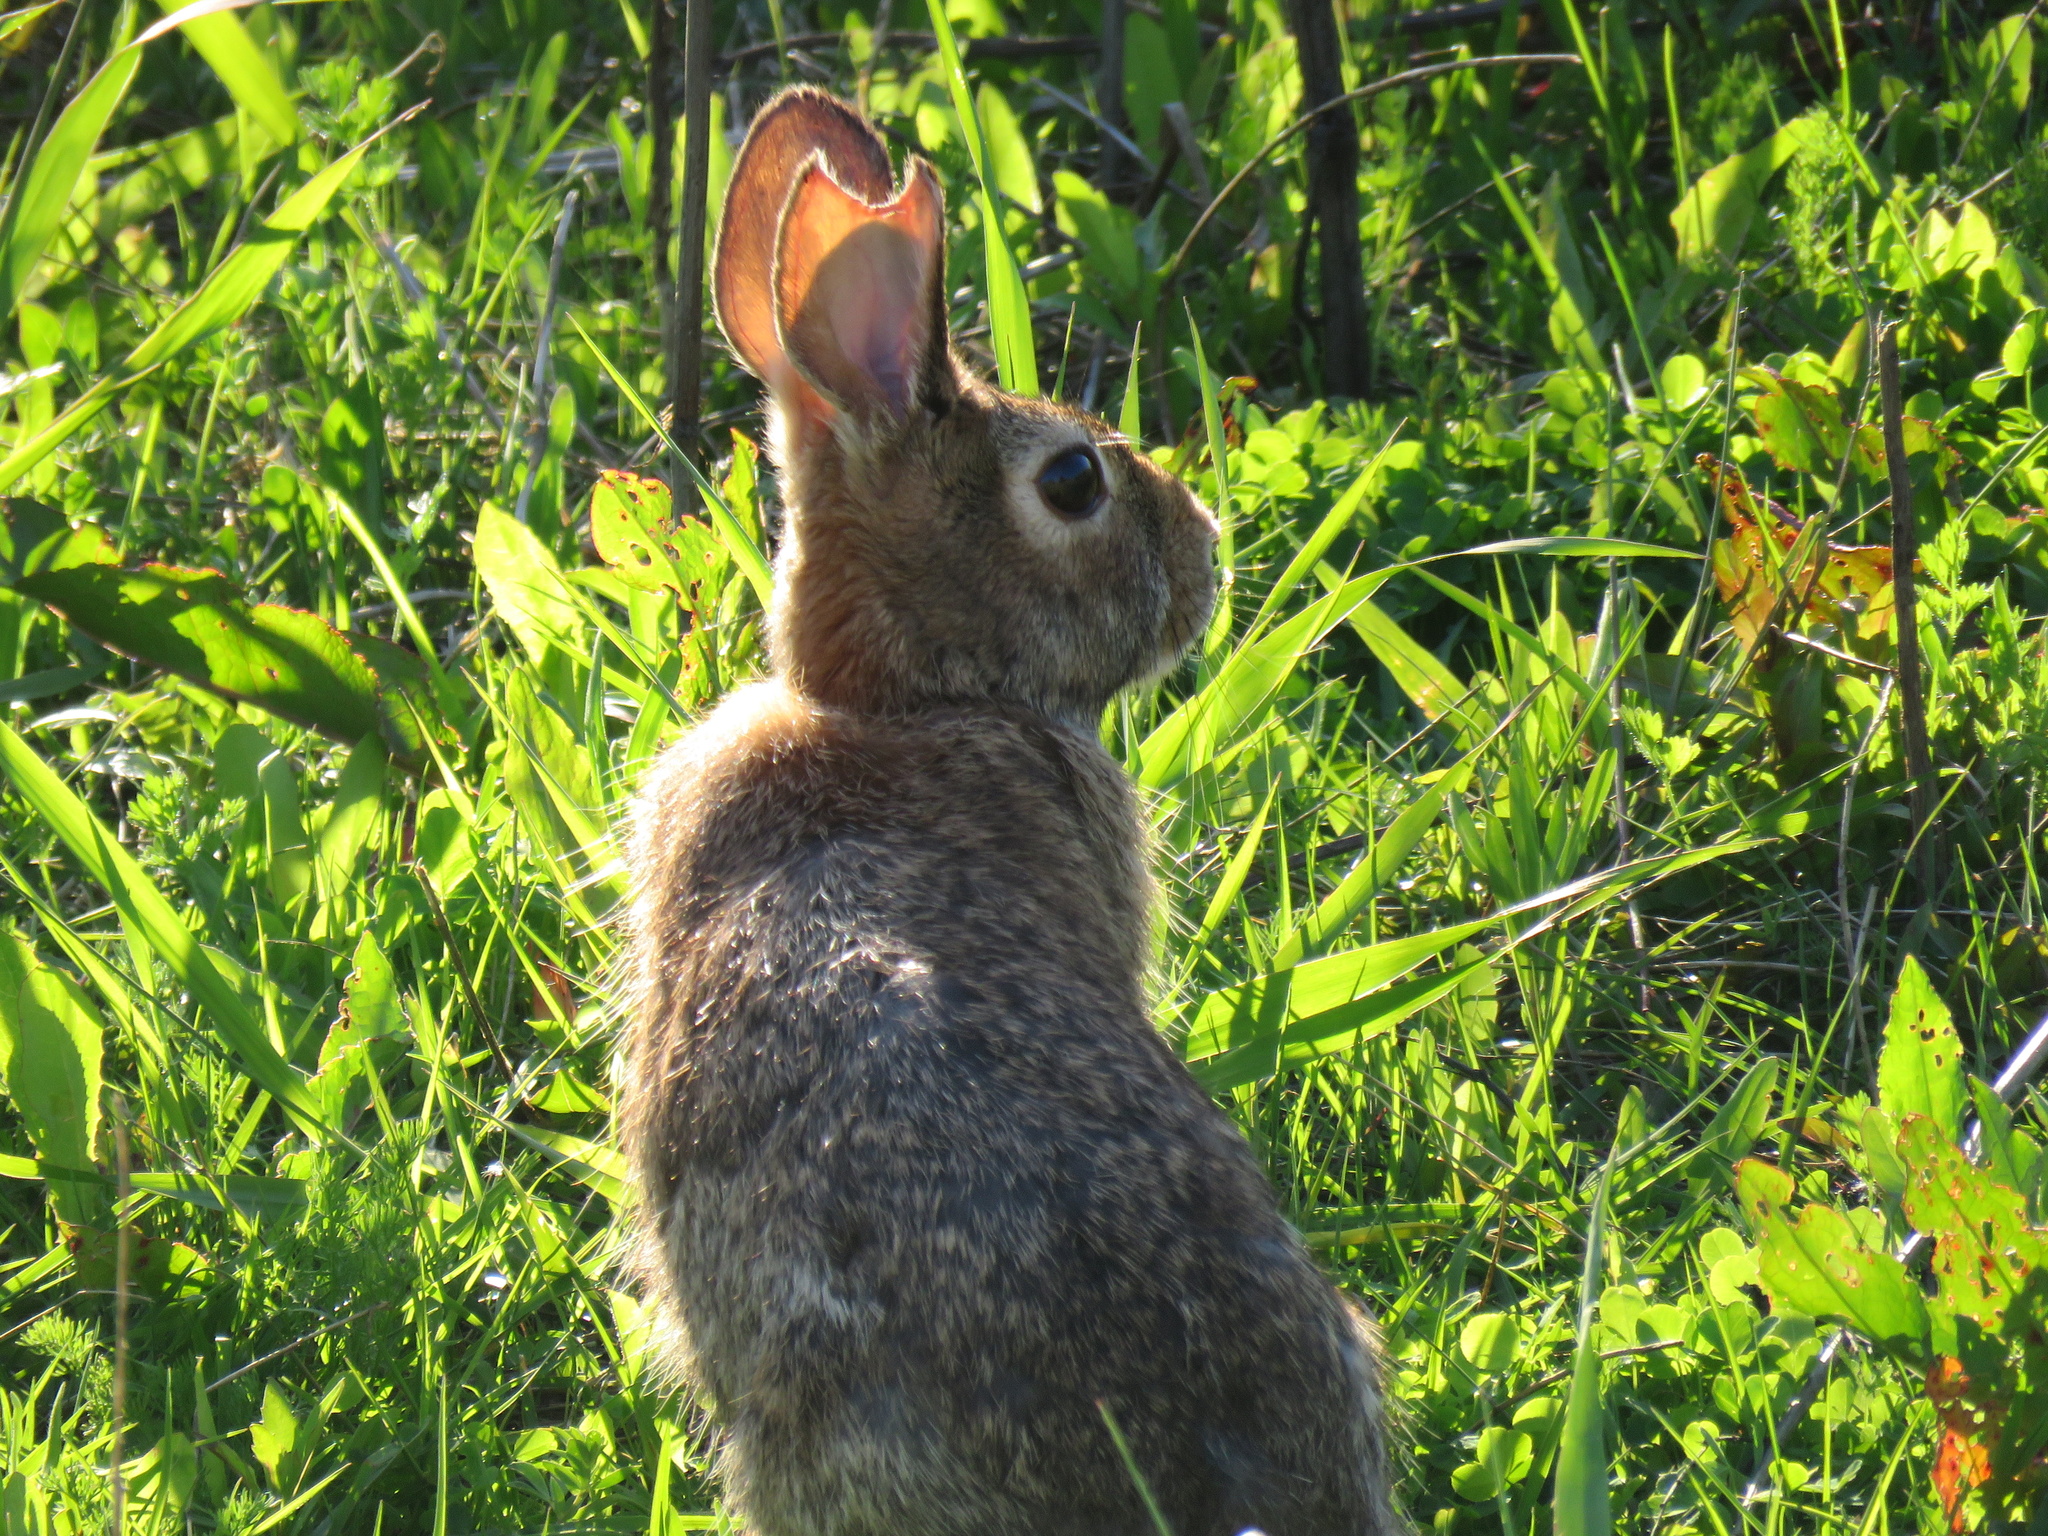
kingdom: Animalia
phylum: Chordata
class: Mammalia
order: Lagomorpha
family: Leporidae
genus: Sylvilagus
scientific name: Sylvilagus floridanus
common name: Eastern cottontail
